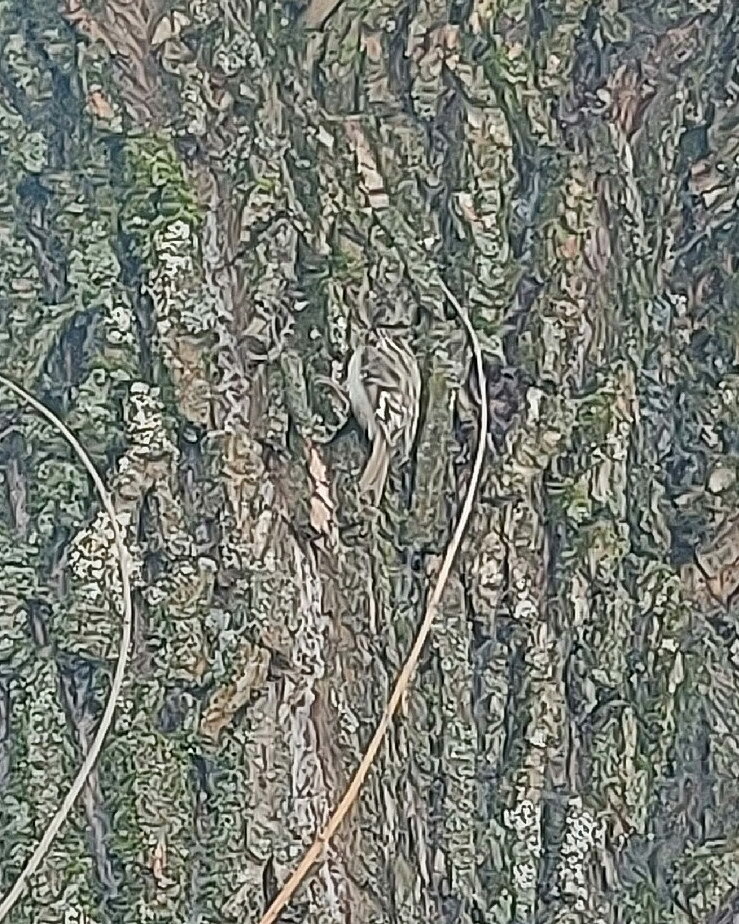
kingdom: Animalia
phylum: Chordata
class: Aves
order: Passeriformes
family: Certhiidae
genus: Certhia
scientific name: Certhia familiaris
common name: Eurasian treecreeper
